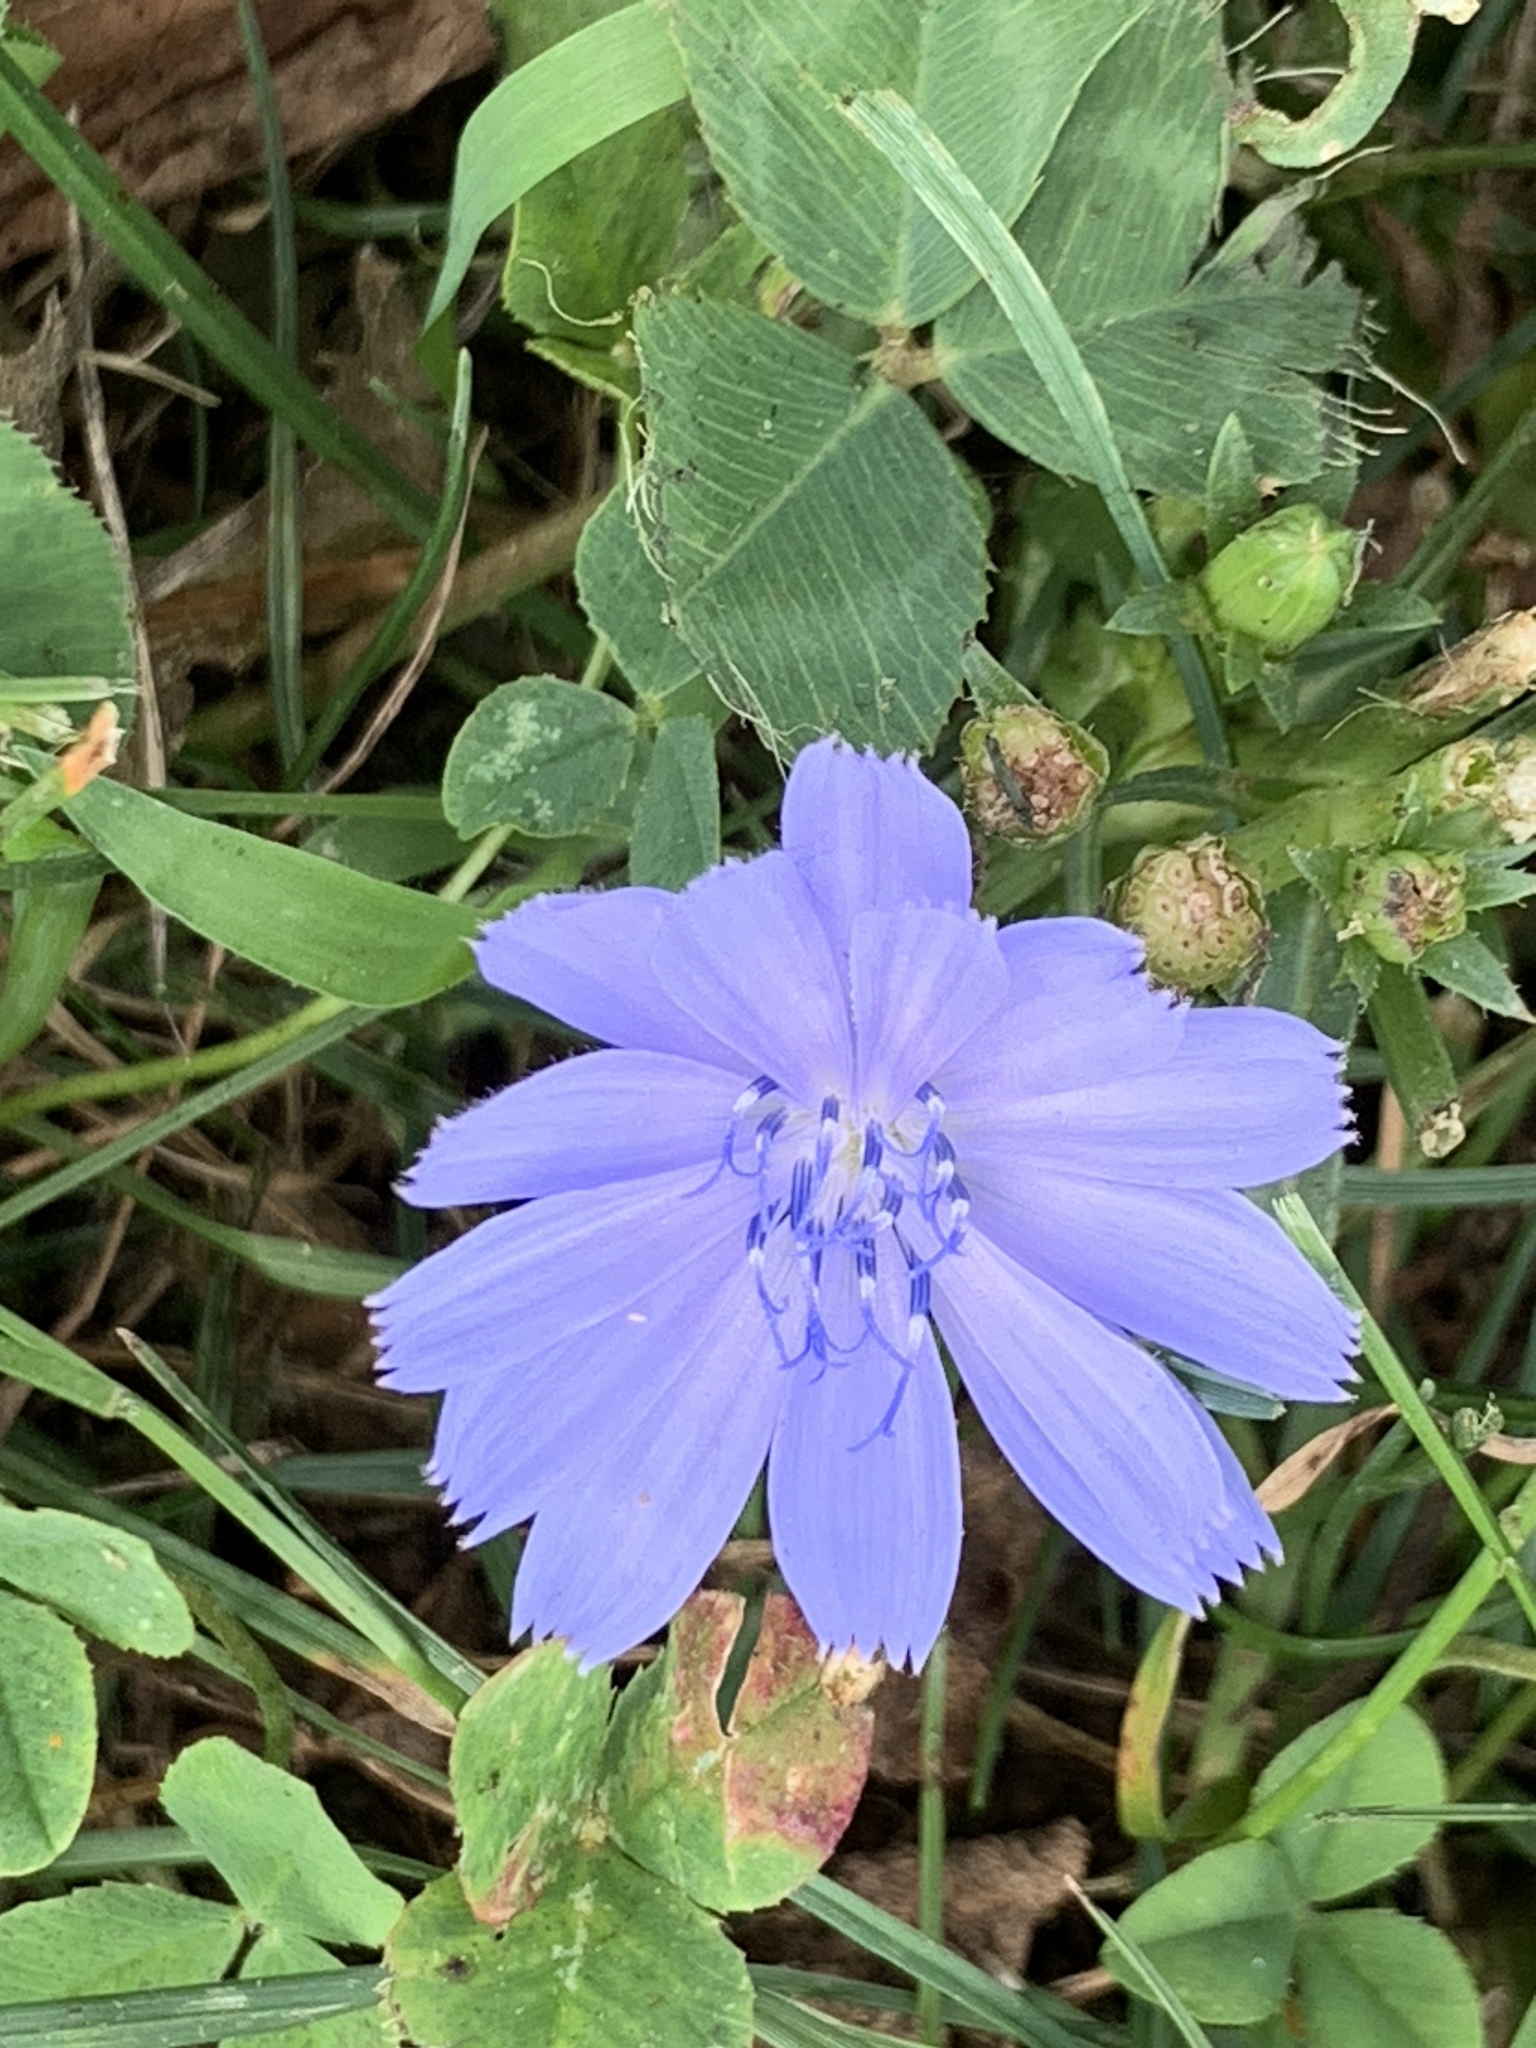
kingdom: Plantae
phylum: Tracheophyta
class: Magnoliopsida
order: Asterales
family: Asteraceae
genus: Cichorium
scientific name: Cichorium intybus
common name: Chicory
